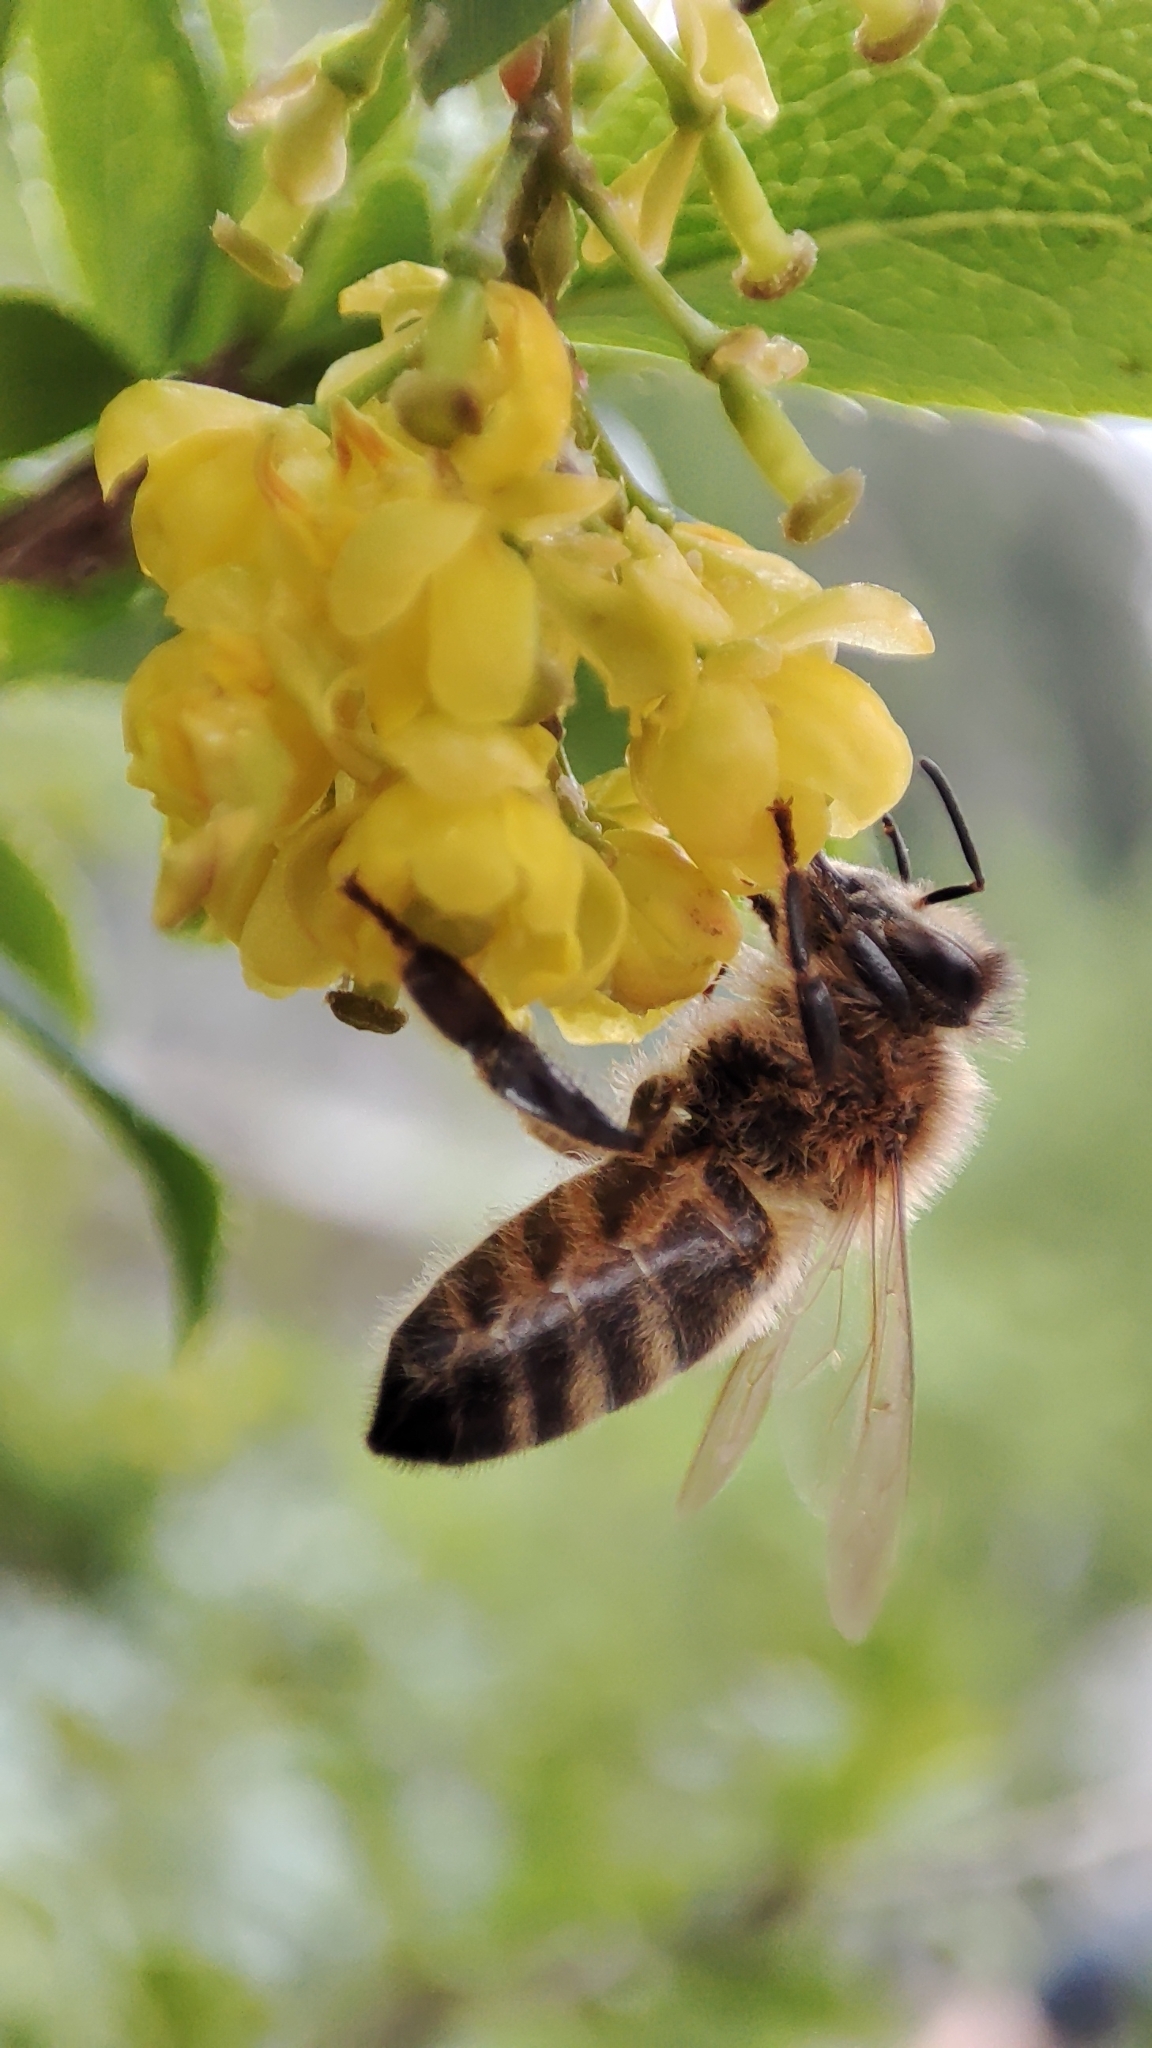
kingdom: Animalia
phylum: Arthropoda
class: Insecta
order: Hymenoptera
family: Apidae
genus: Apis
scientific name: Apis mellifera
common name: Honey bee
